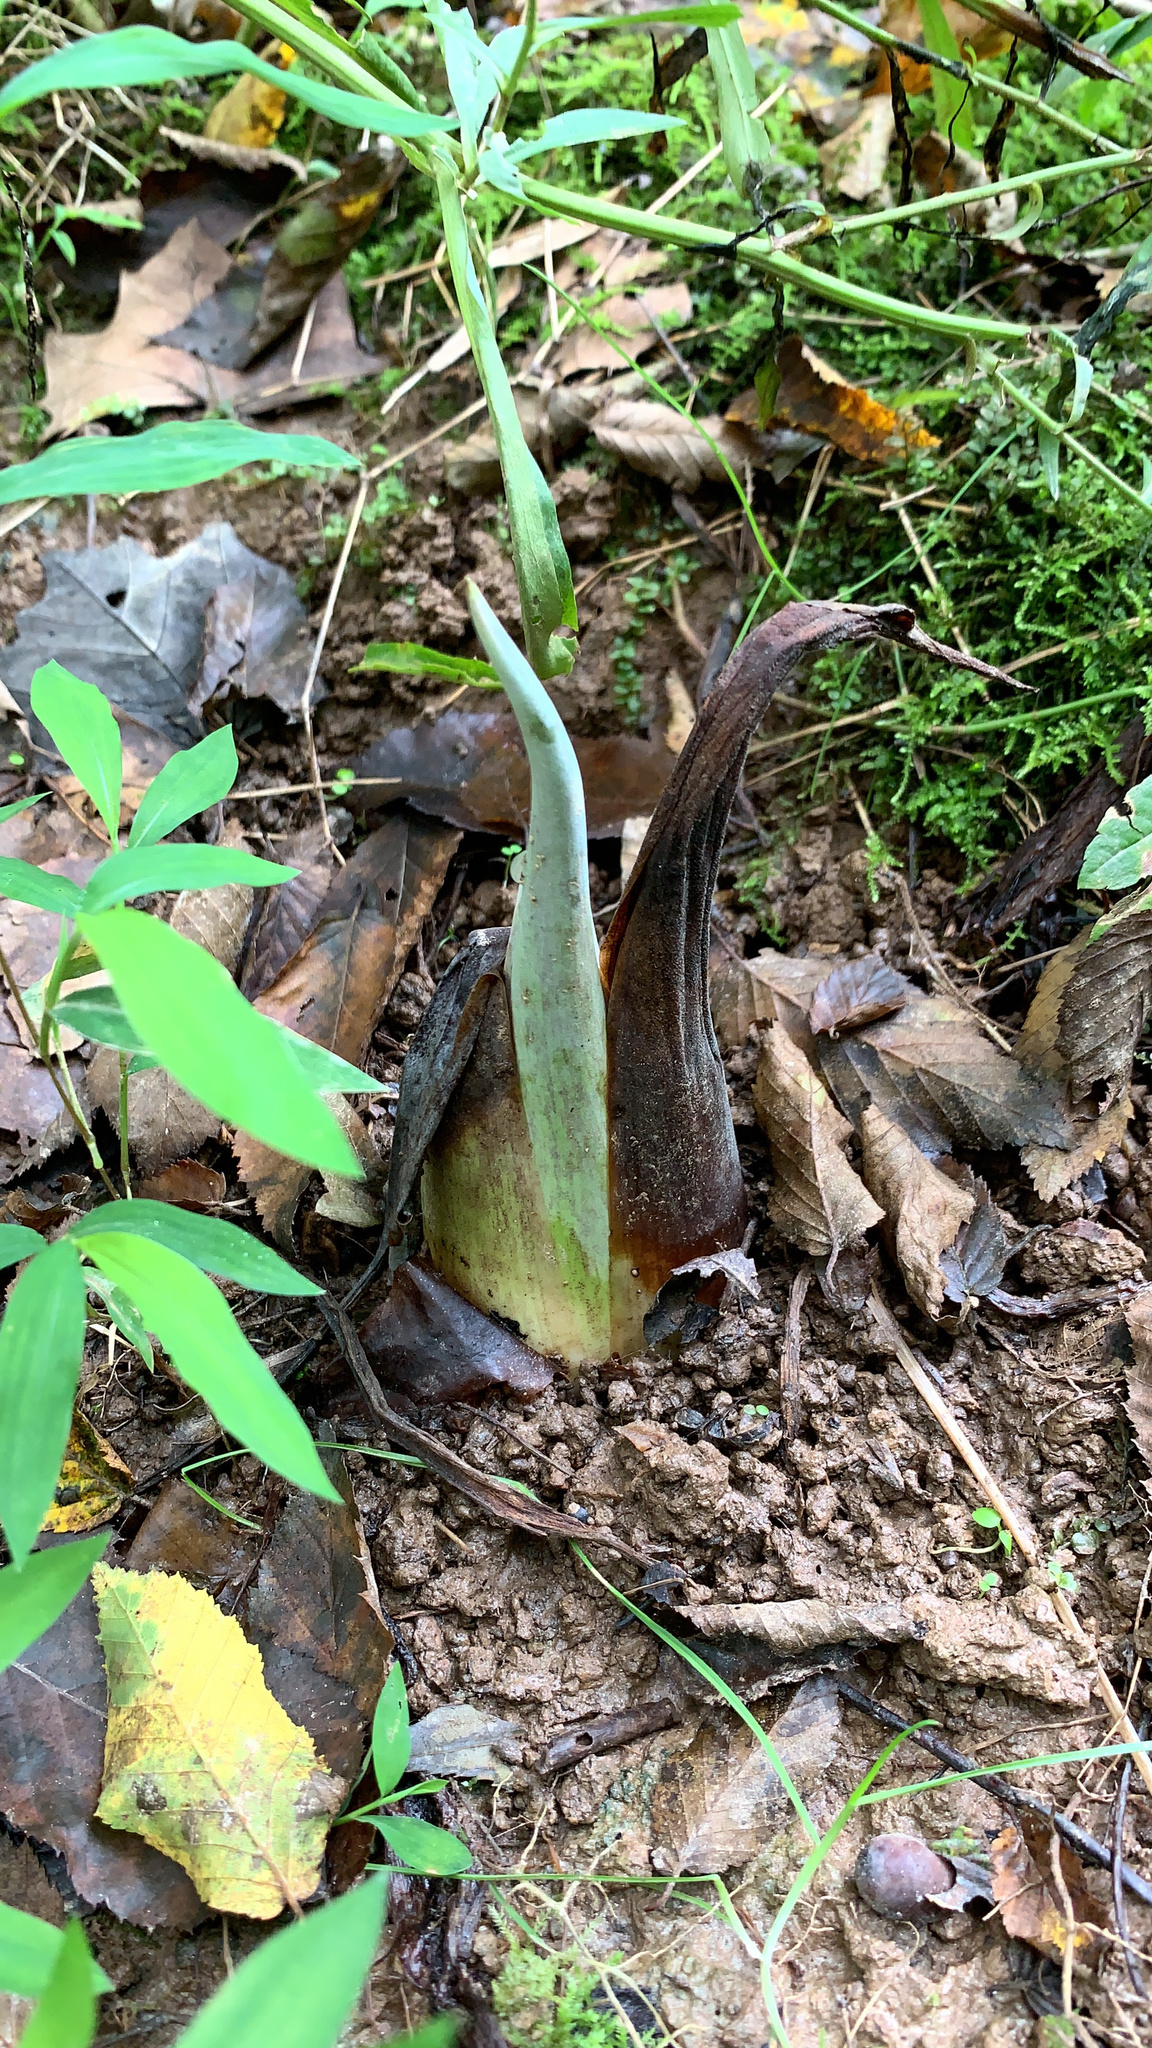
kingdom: Plantae
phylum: Tracheophyta
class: Liliopsida
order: Alismatales
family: Araceae
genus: Symplocarpus
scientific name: Symplocarpus foetidus
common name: Eastern skunk cabbage
